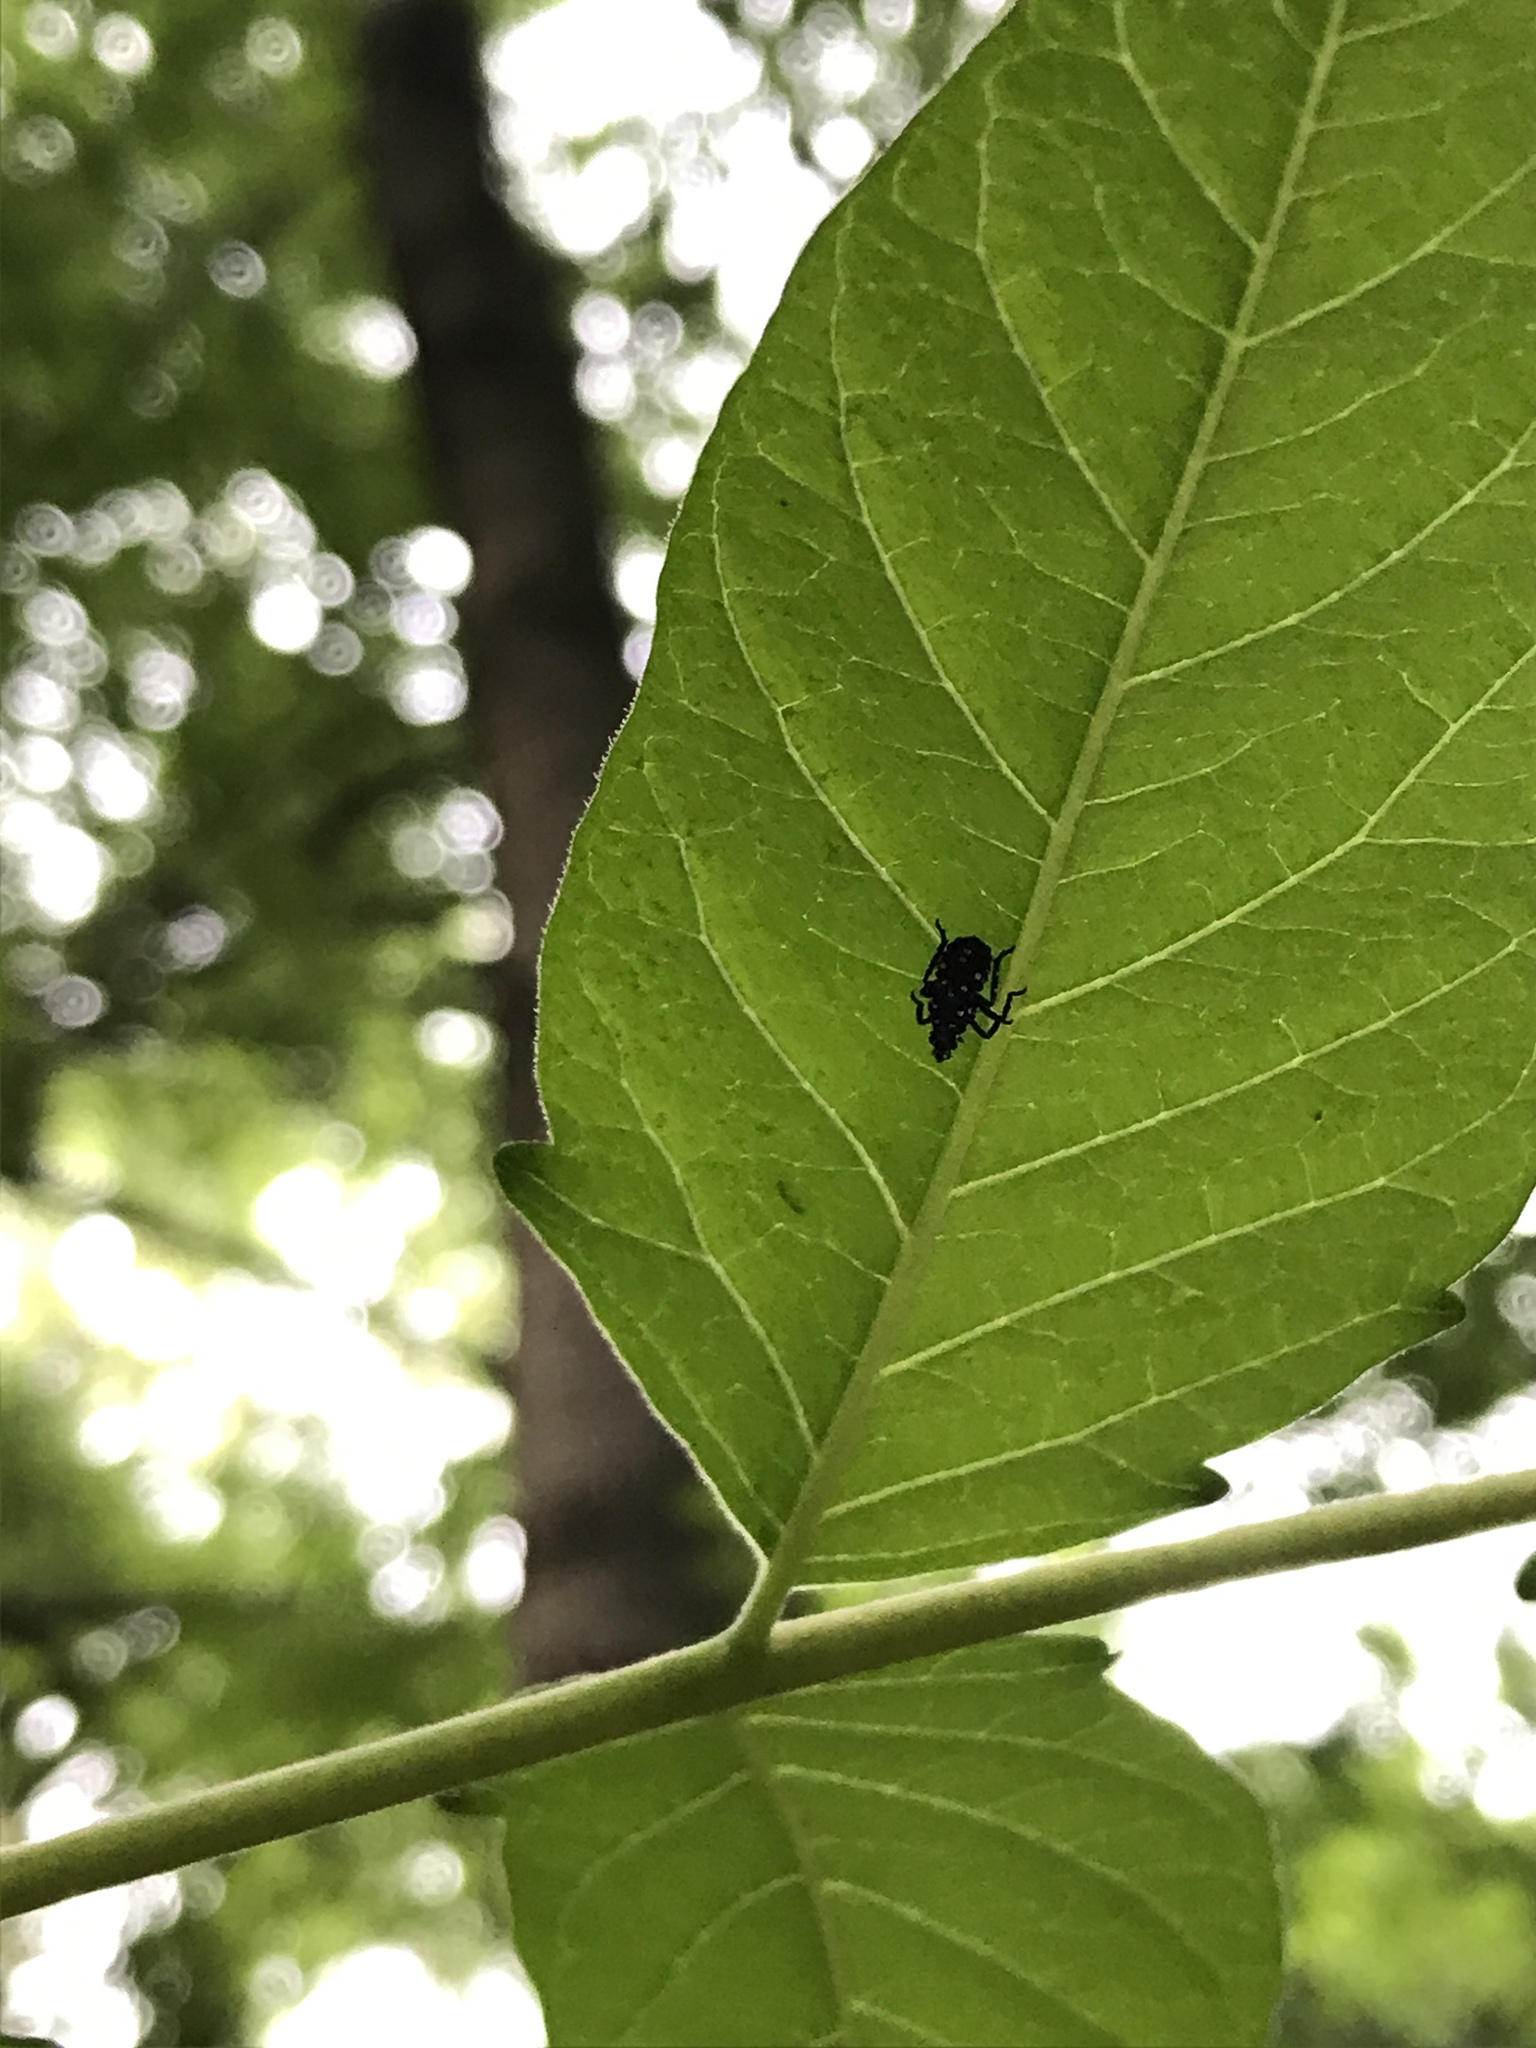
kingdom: Animalia
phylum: Arthropoda
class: Insecta
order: Hemiptera
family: Fulgoridae
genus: Lycorma
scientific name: Lycorma delicatula
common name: Spotted lanternfly
